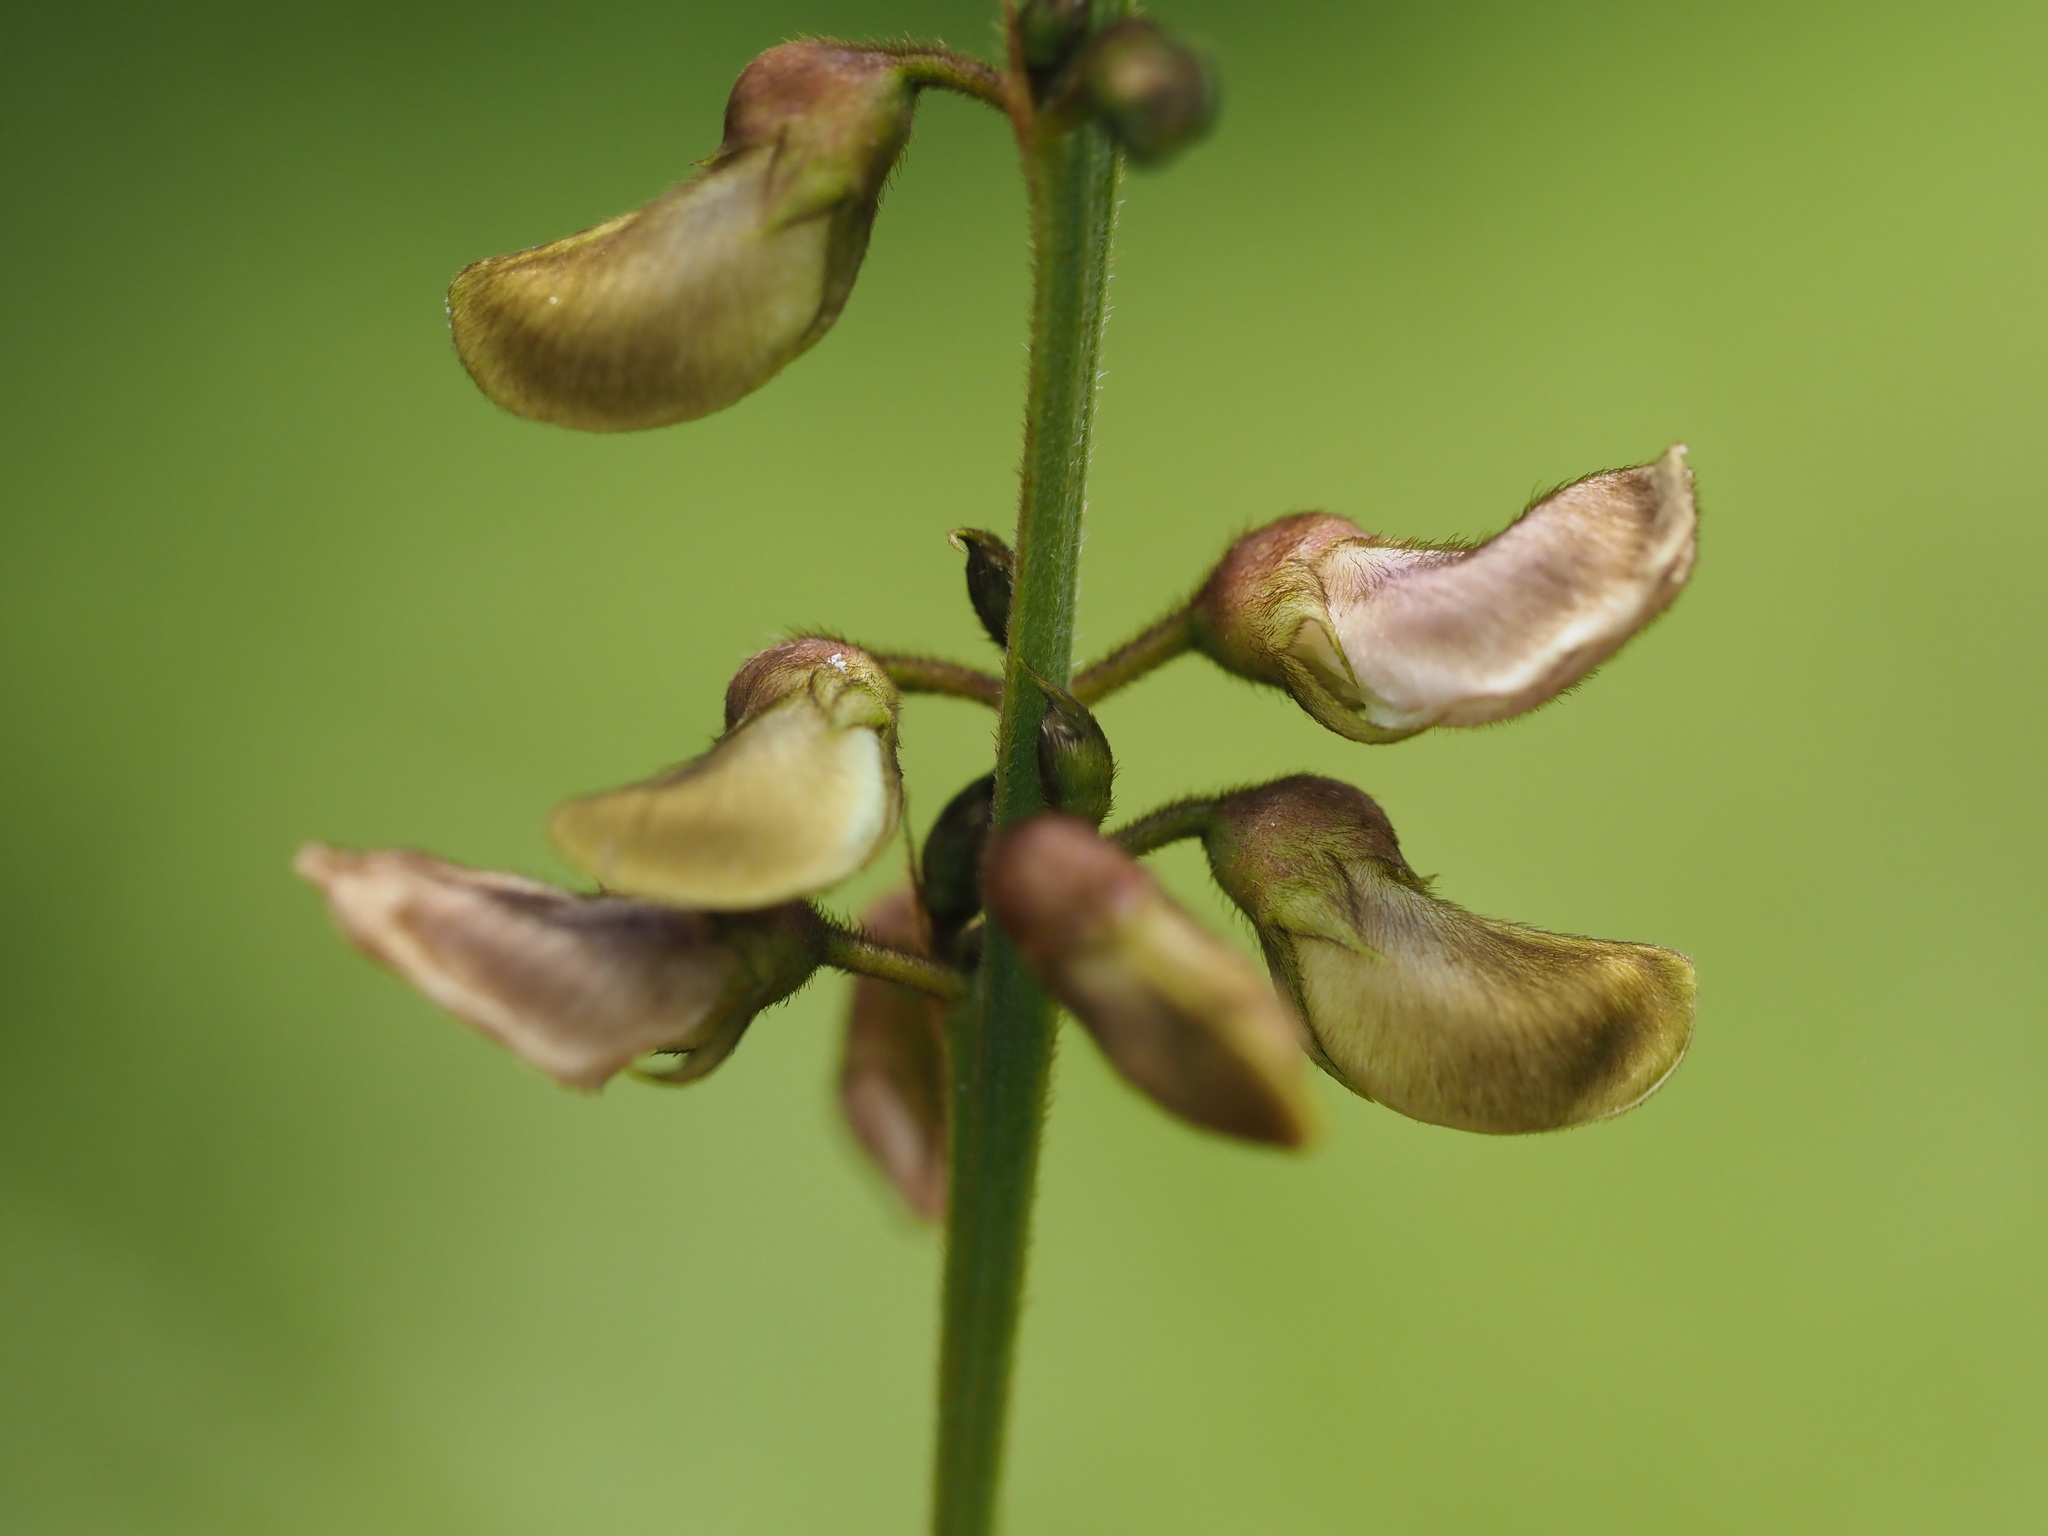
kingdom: Plantae
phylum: Tracheophyta
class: Magnoliopsida
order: Fabales
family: Fabaceae
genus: Tephrosia
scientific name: Tephrosia noctiflora
